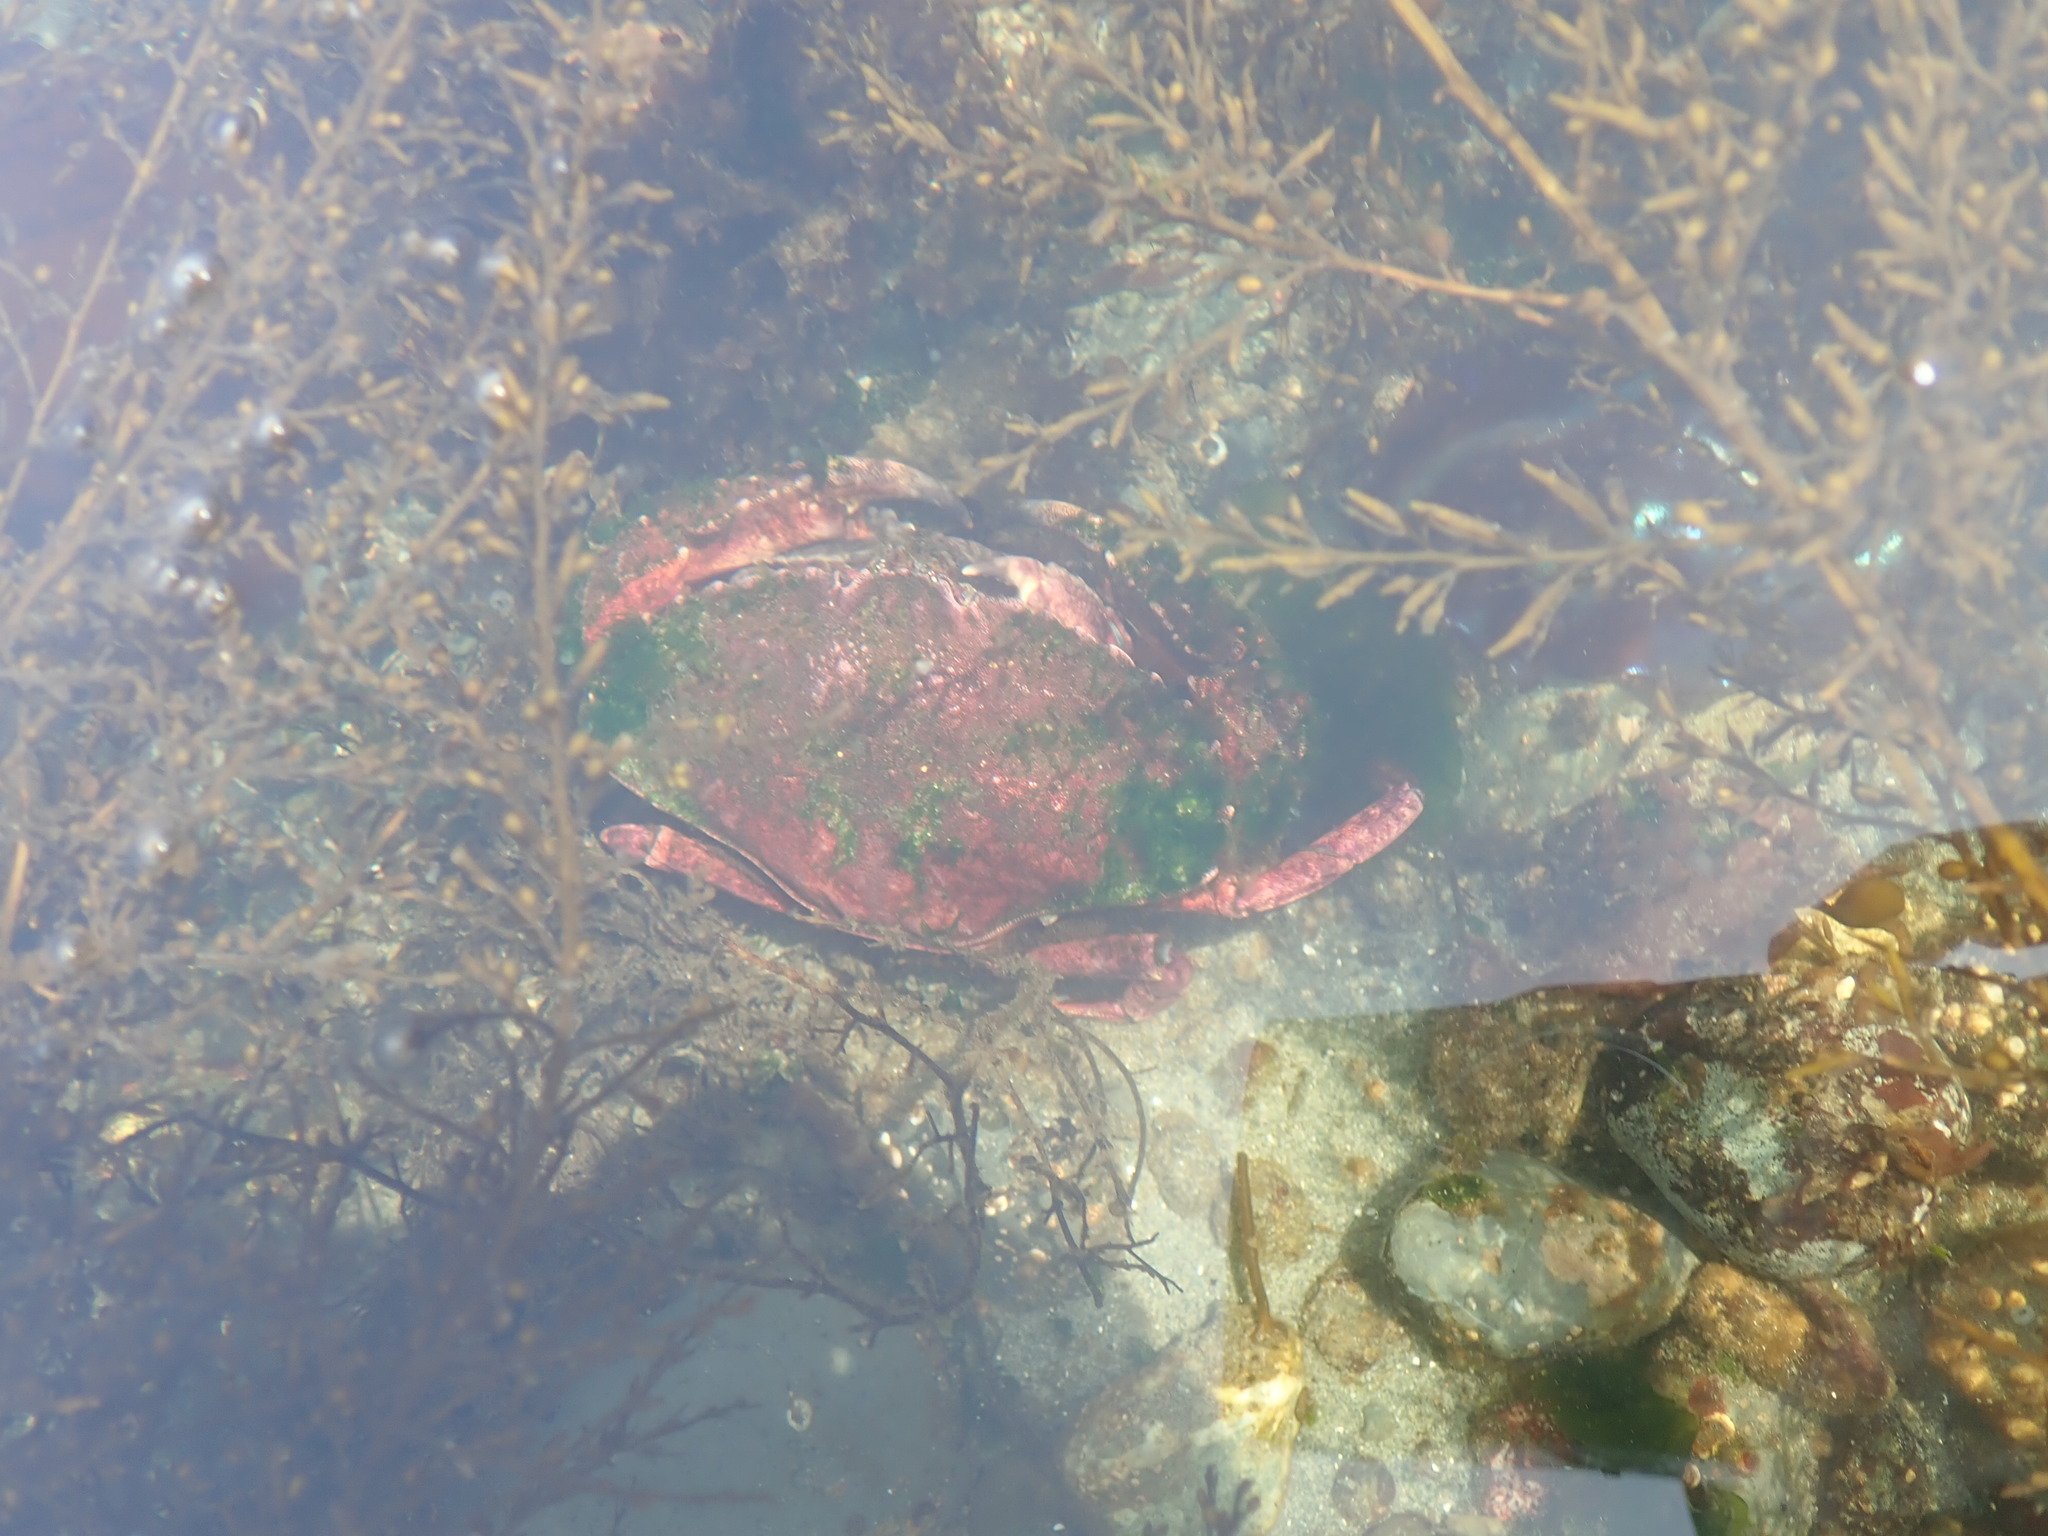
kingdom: Animalia
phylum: Arthropoda
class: Malacostraca
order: Decapoda
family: Cancridae
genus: Cancer
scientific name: Cancer productus
